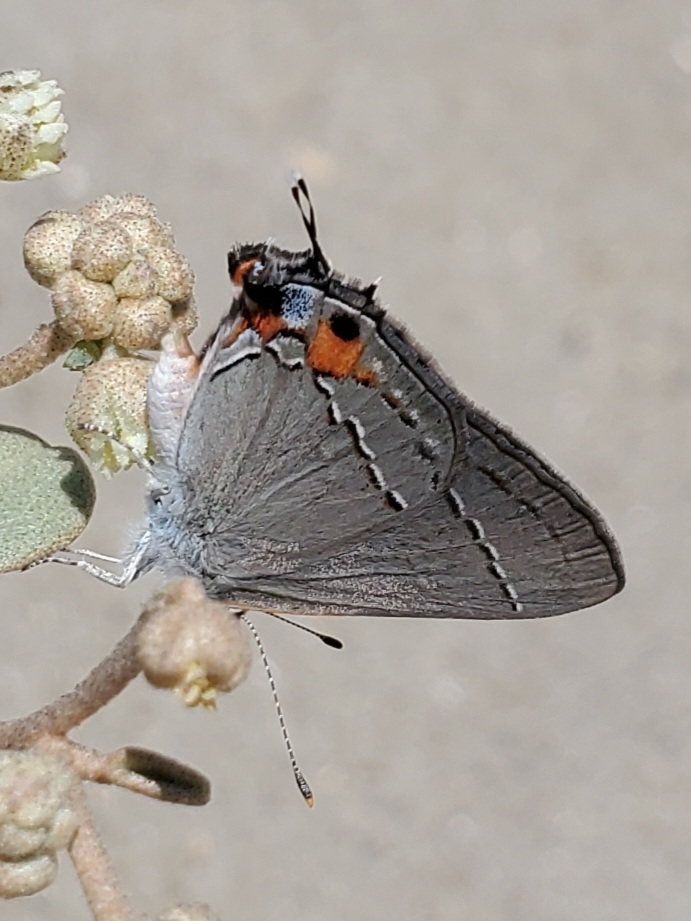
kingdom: Animalia
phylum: Arthropoda
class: Insecta
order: Lepidoptera
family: Lycaenidae
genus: Strymon
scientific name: Strymon melinus
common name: Gray hairstreak
